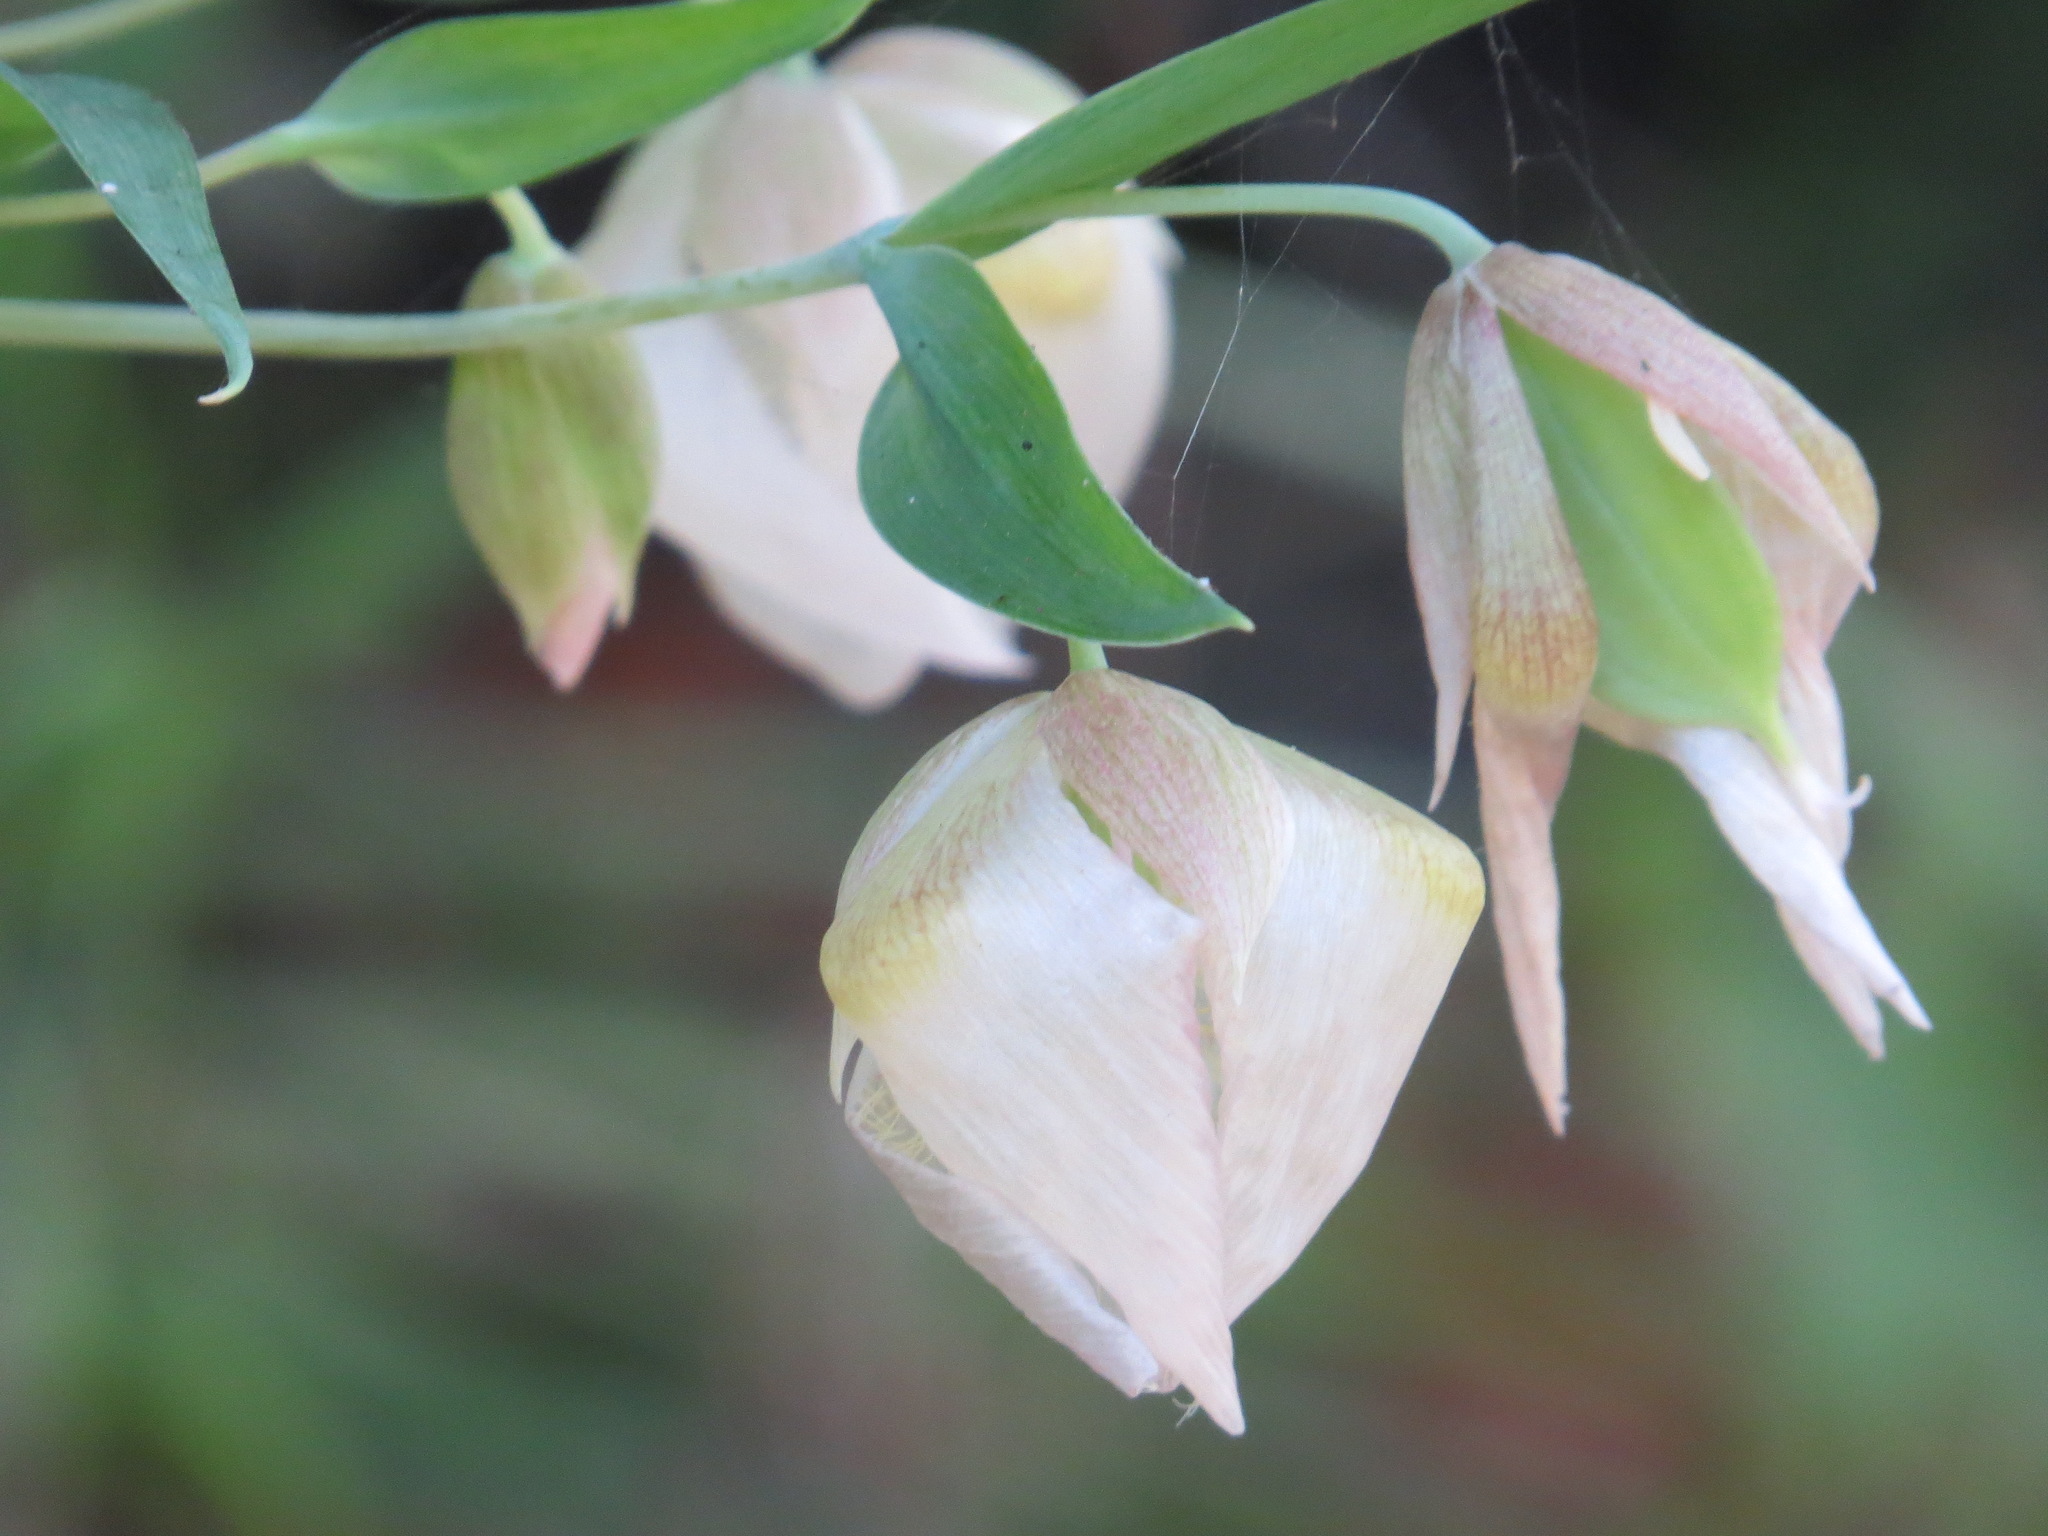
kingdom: Plantae
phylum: Tracheophyta
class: Liliopsida
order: Liliales
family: Liliaceae
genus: Calochortus
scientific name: Calochortus albus
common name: Fairy-lantern
